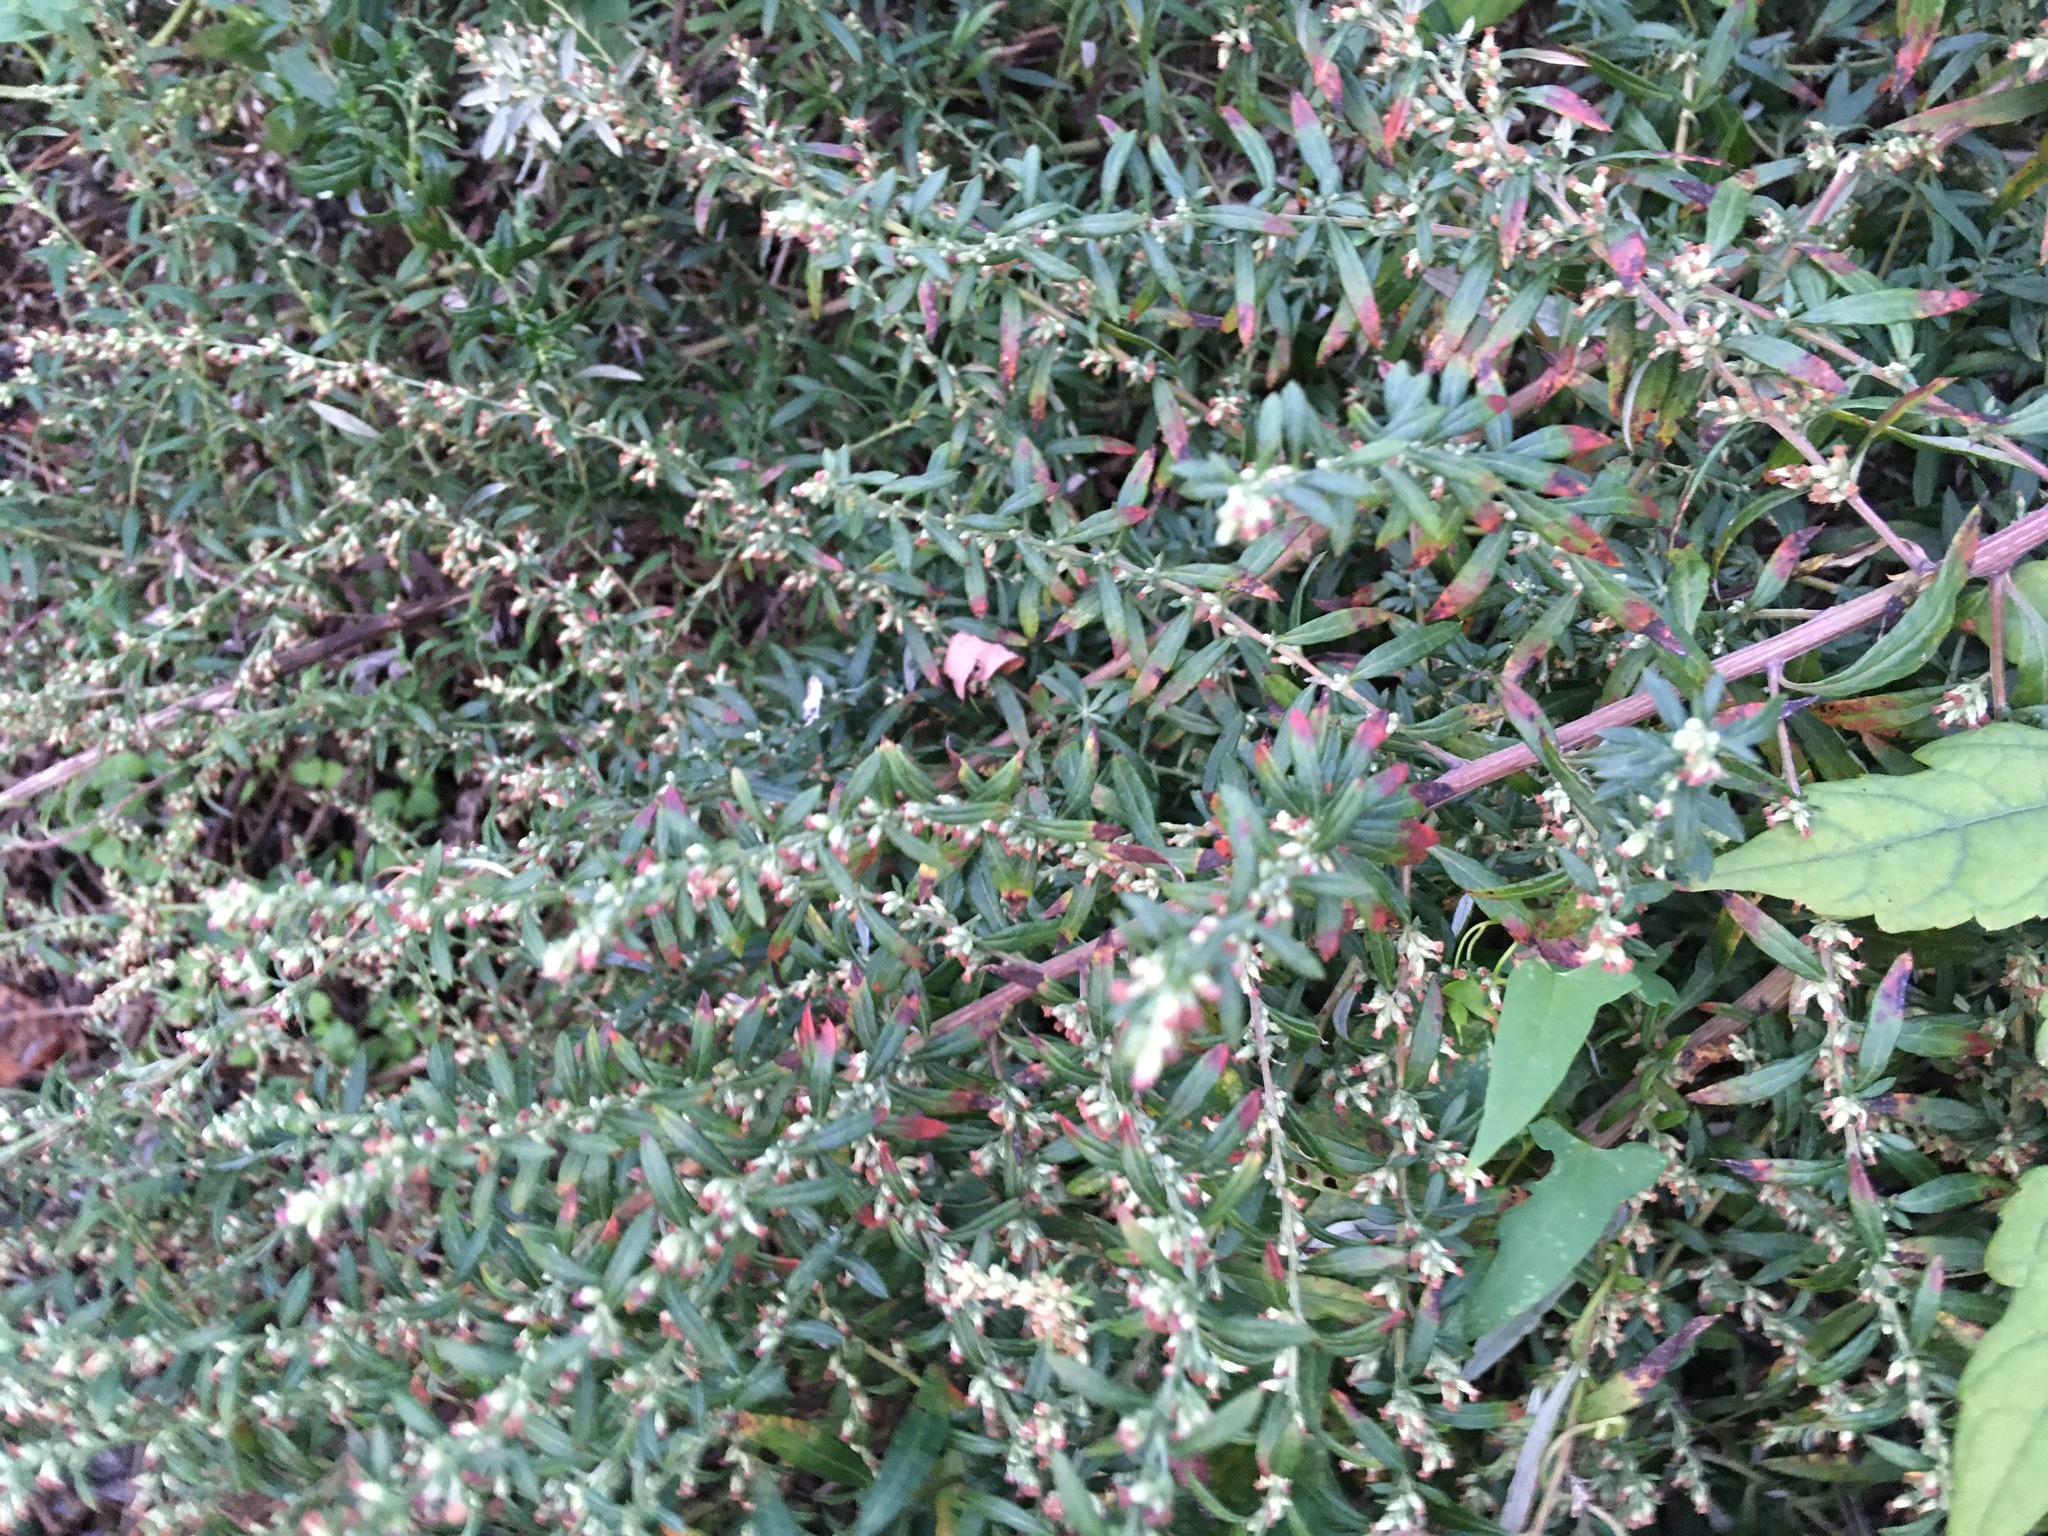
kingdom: Plantae
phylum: Tracheophyta
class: Magnoliopsida
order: Asterales
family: Asteraceae
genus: Artemisia
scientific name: Artemisia vulgaris
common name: Mugwort
